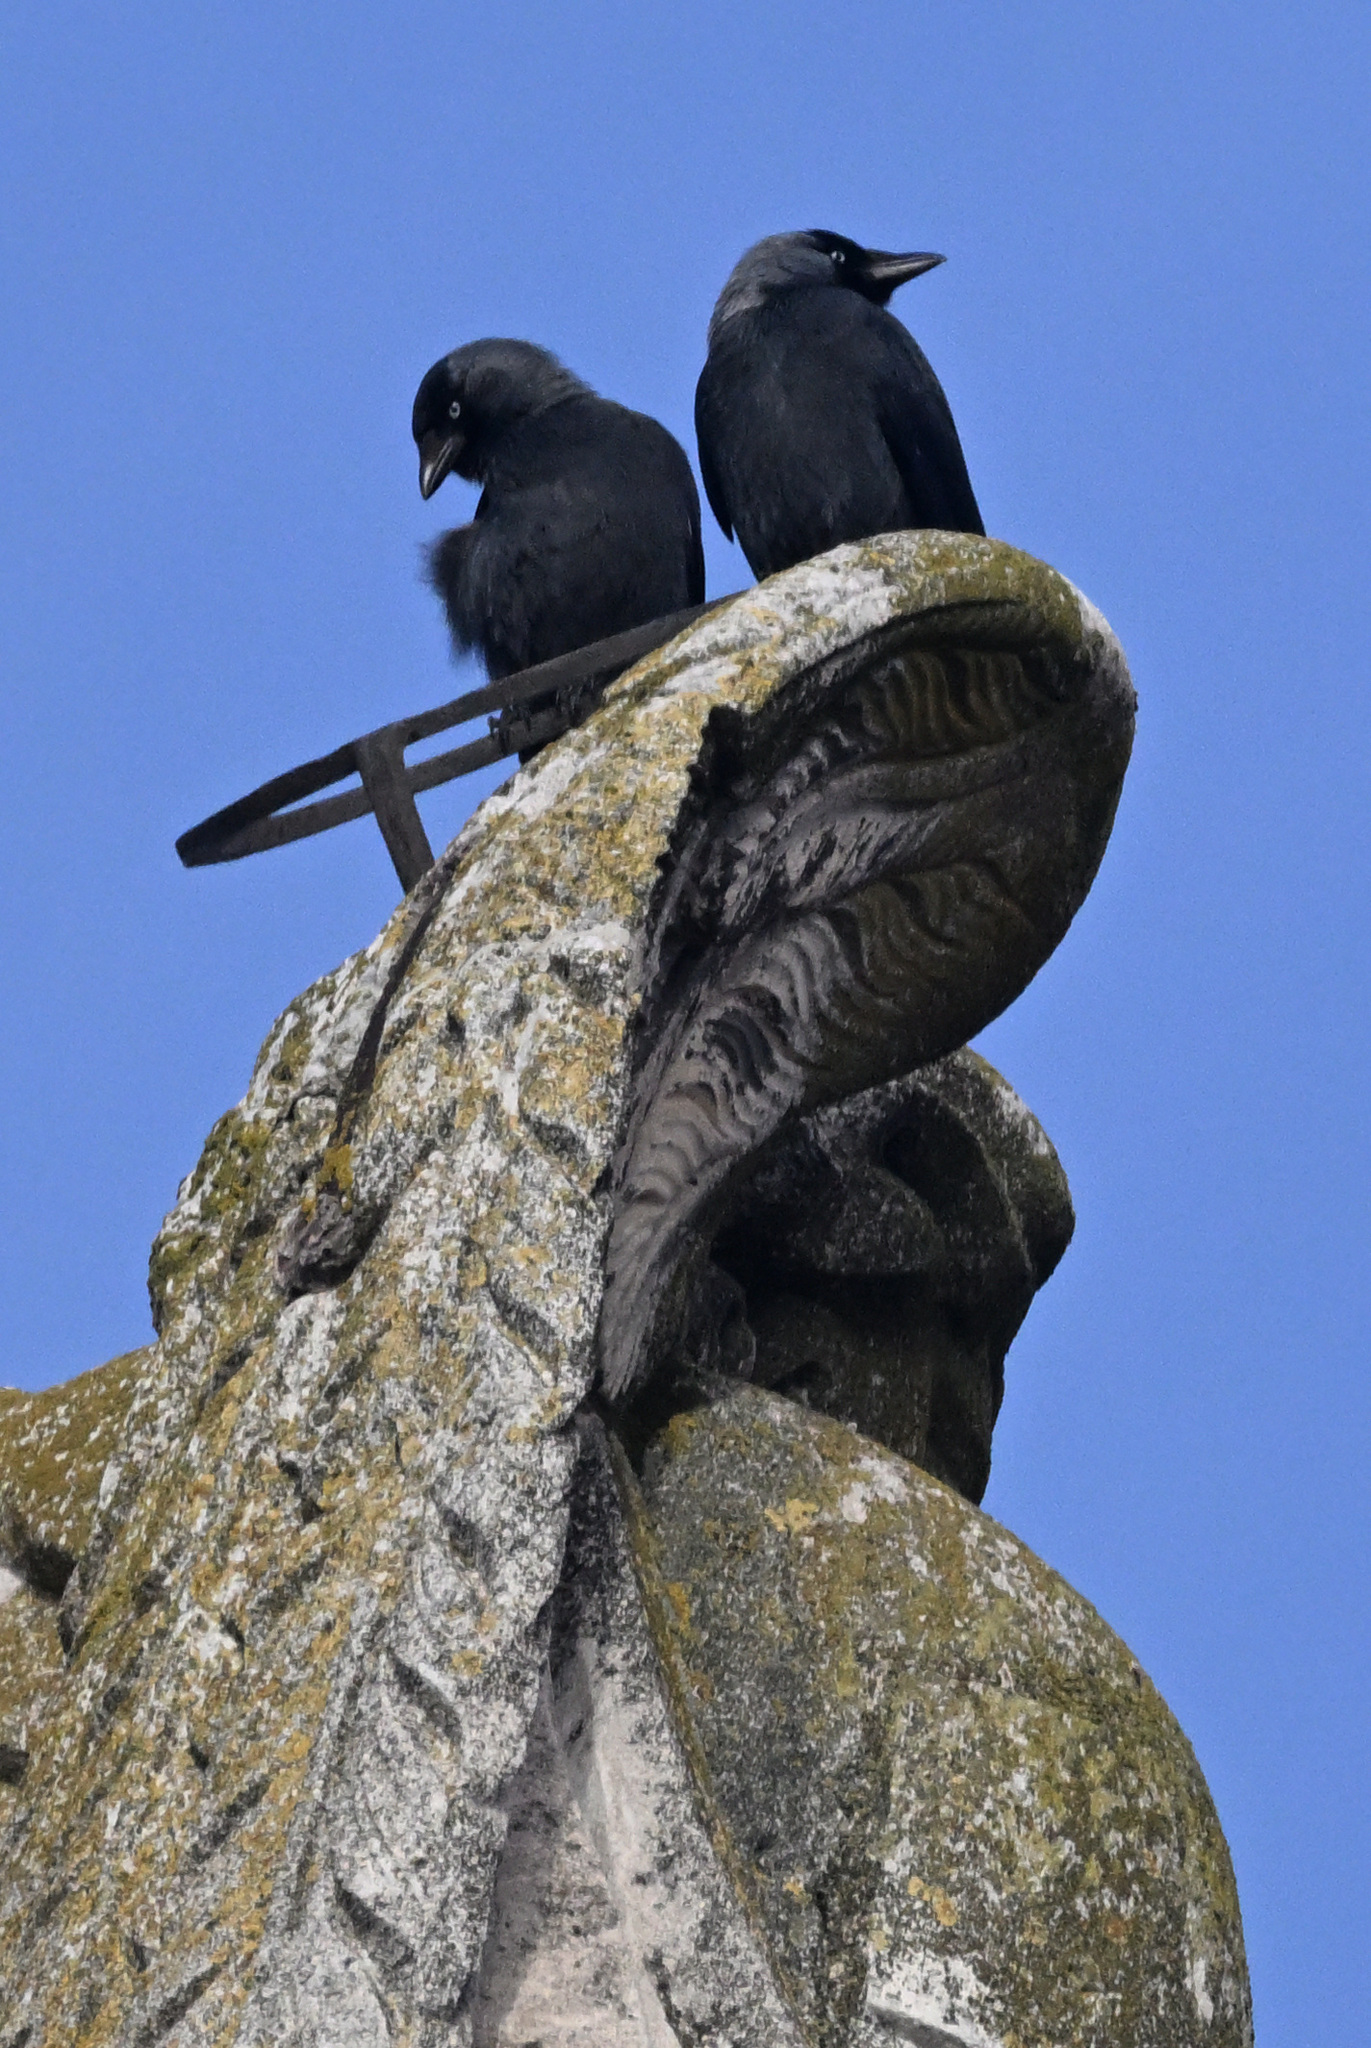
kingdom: Animalia
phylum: Chordata
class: Aves
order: Passeriformes
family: Corvidae
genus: Coloeus
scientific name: Coloeus monedula
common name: Western jackdaw
